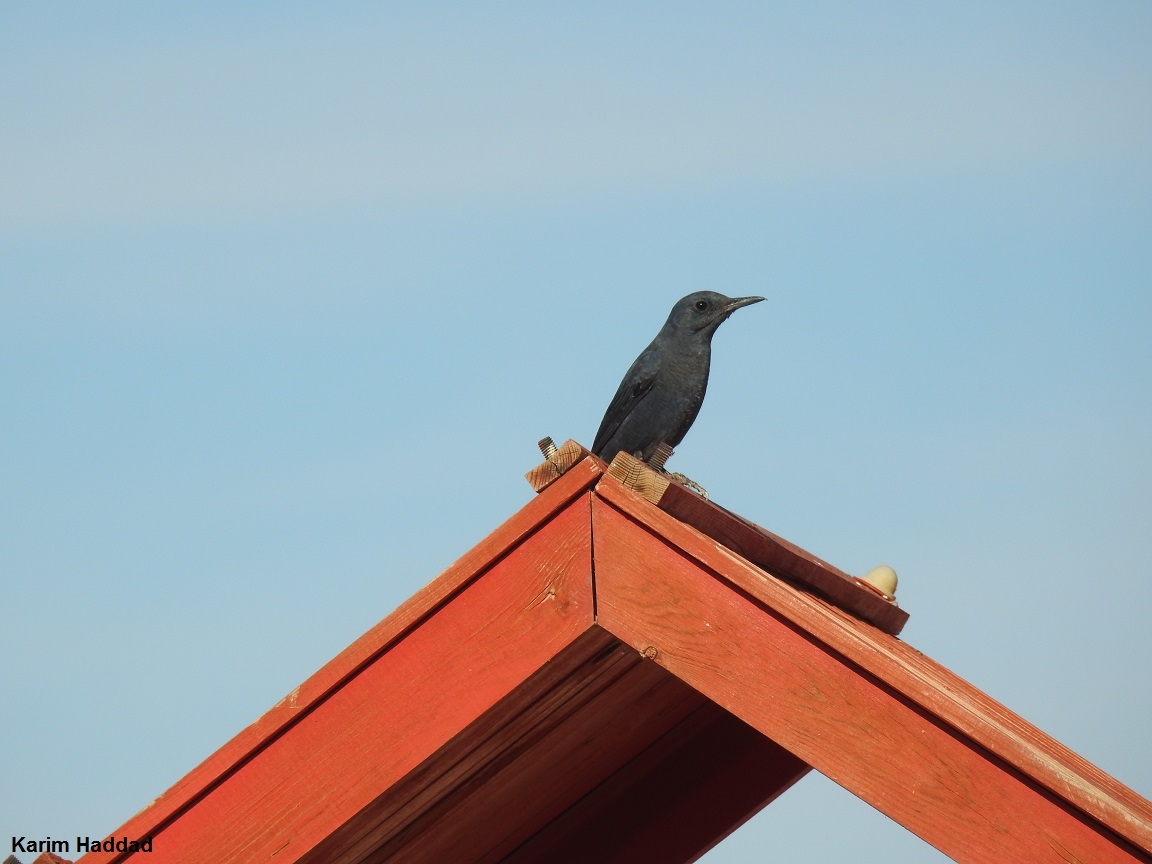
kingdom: Animalia
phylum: Chordata
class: Aves
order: Passeriformes
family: Muscicapidae
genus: Monticola
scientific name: Monticola solitarius
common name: Blue rock thrush
